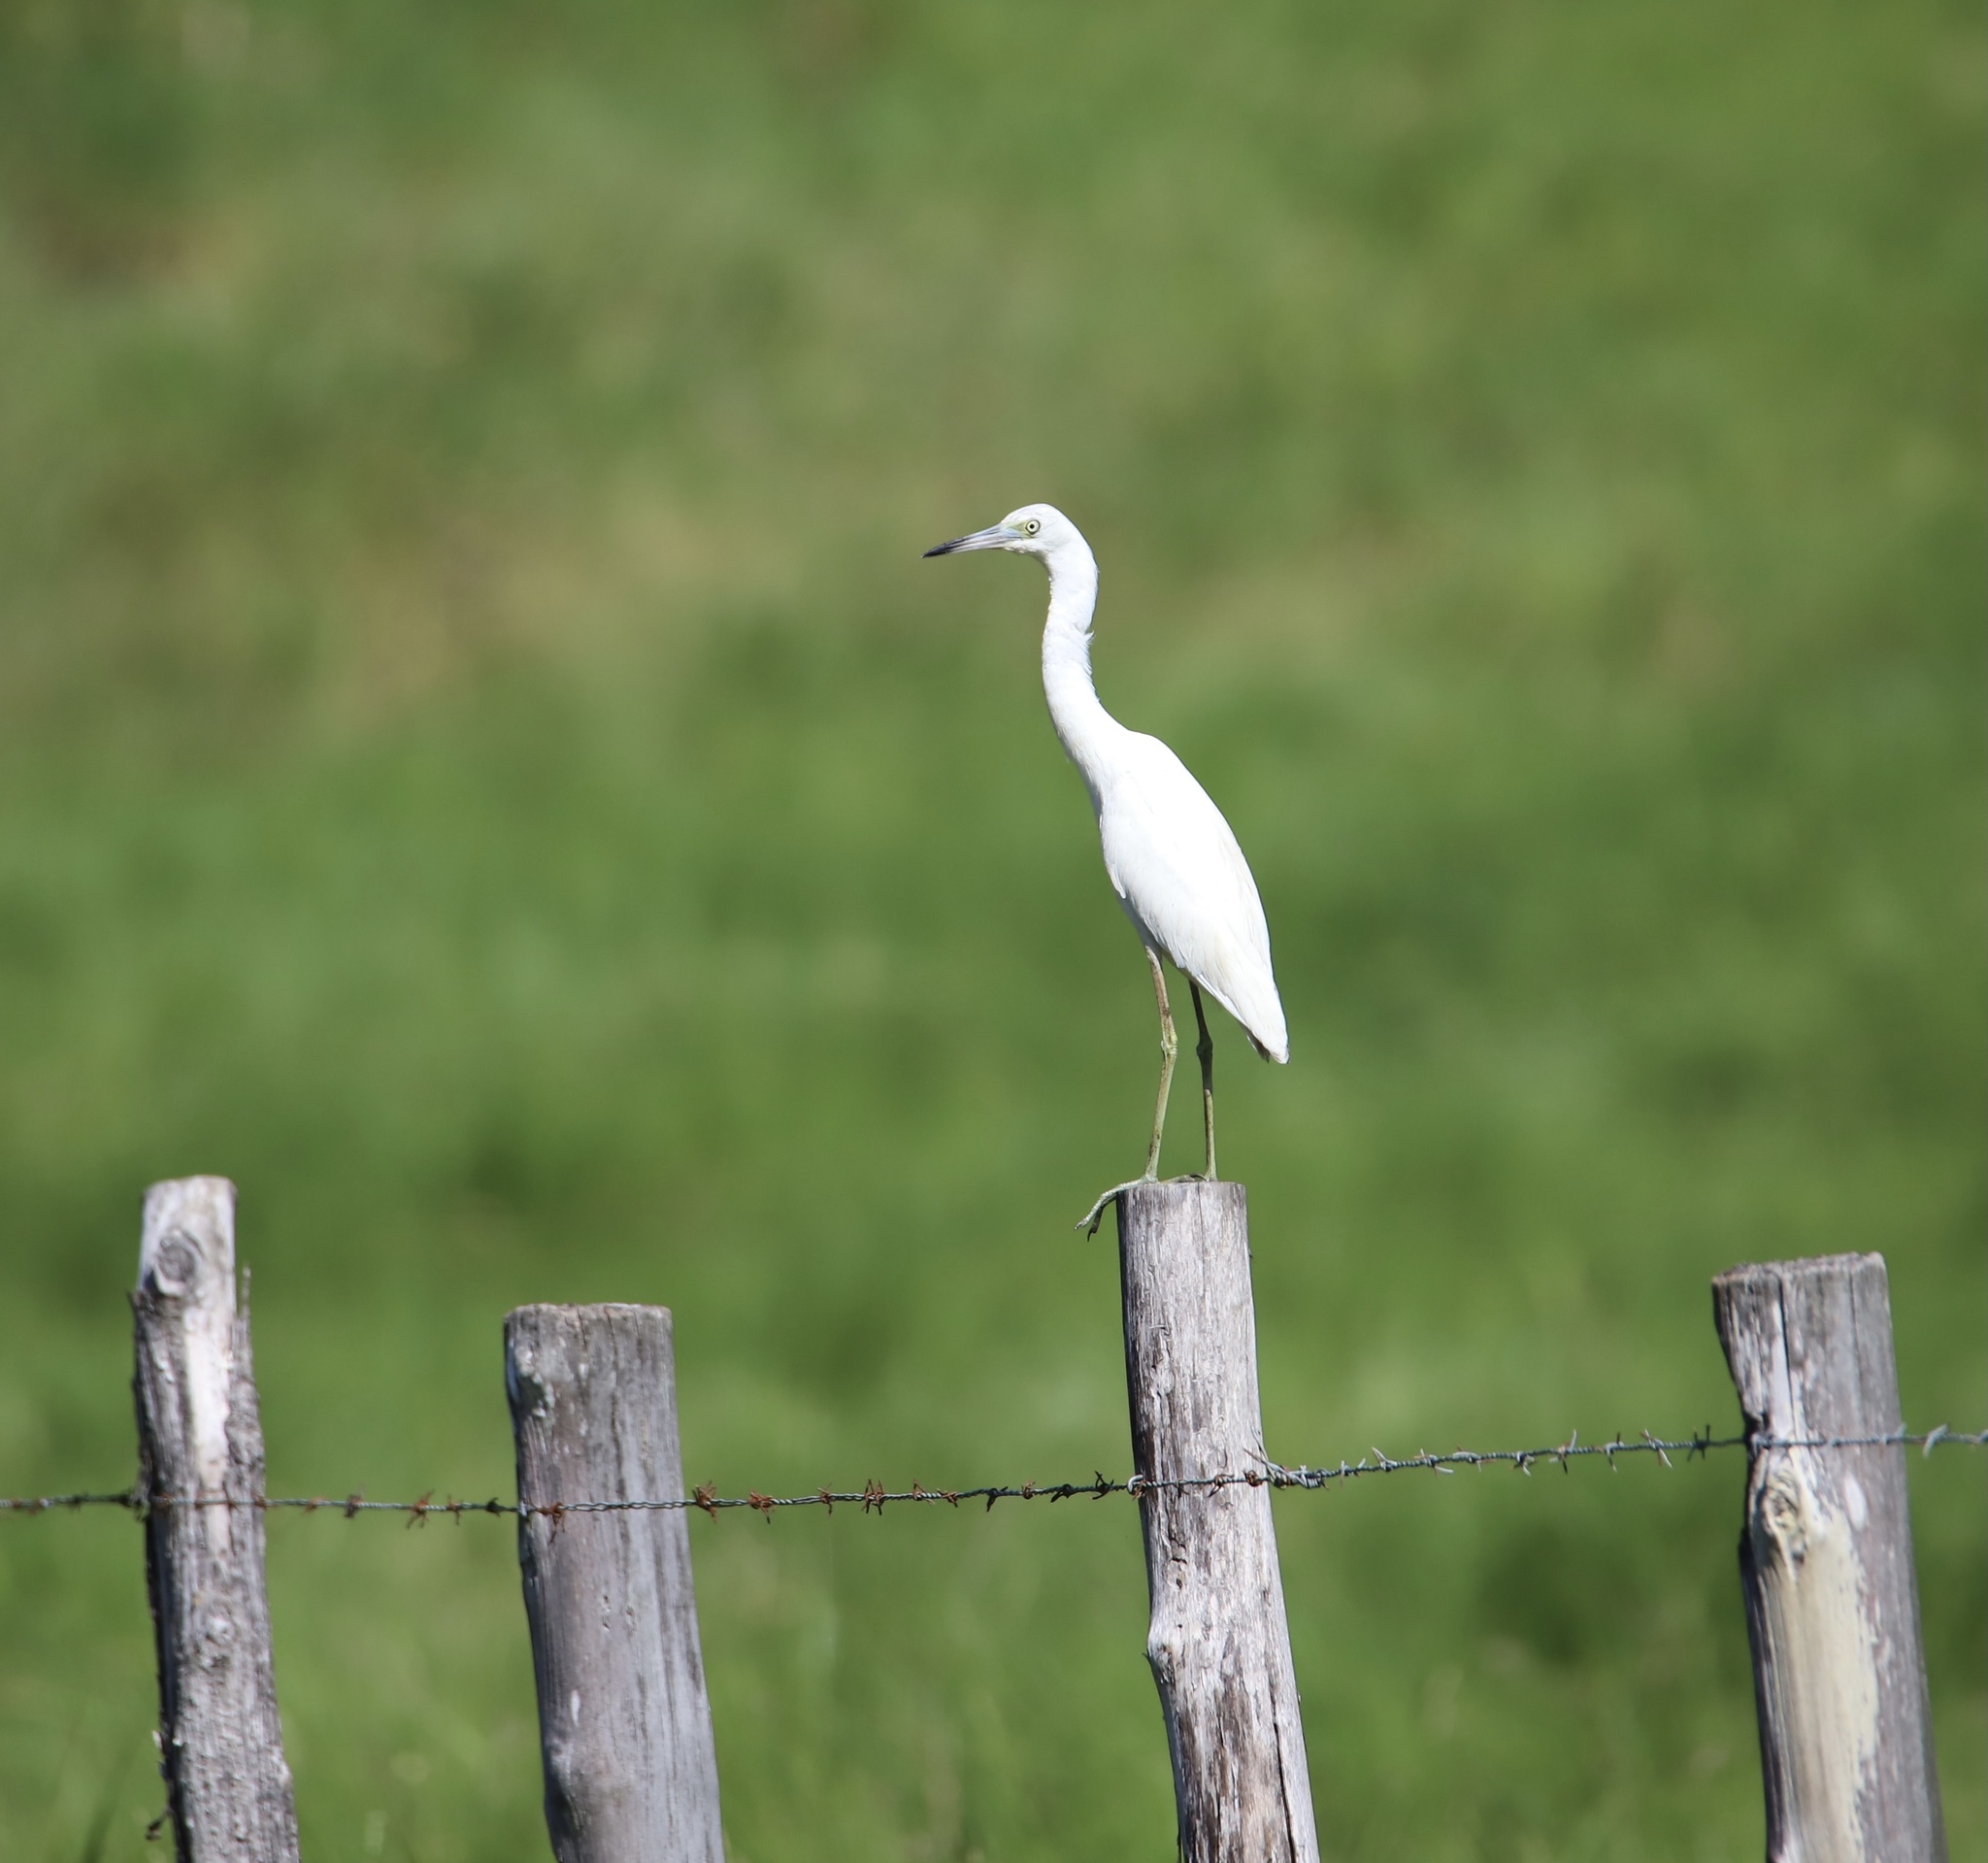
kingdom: Animalia
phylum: Chordata
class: Aves
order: Pelecaniformes
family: Ardeidae
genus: Egretta
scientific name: Egretta caerulea
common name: Little blue heron
